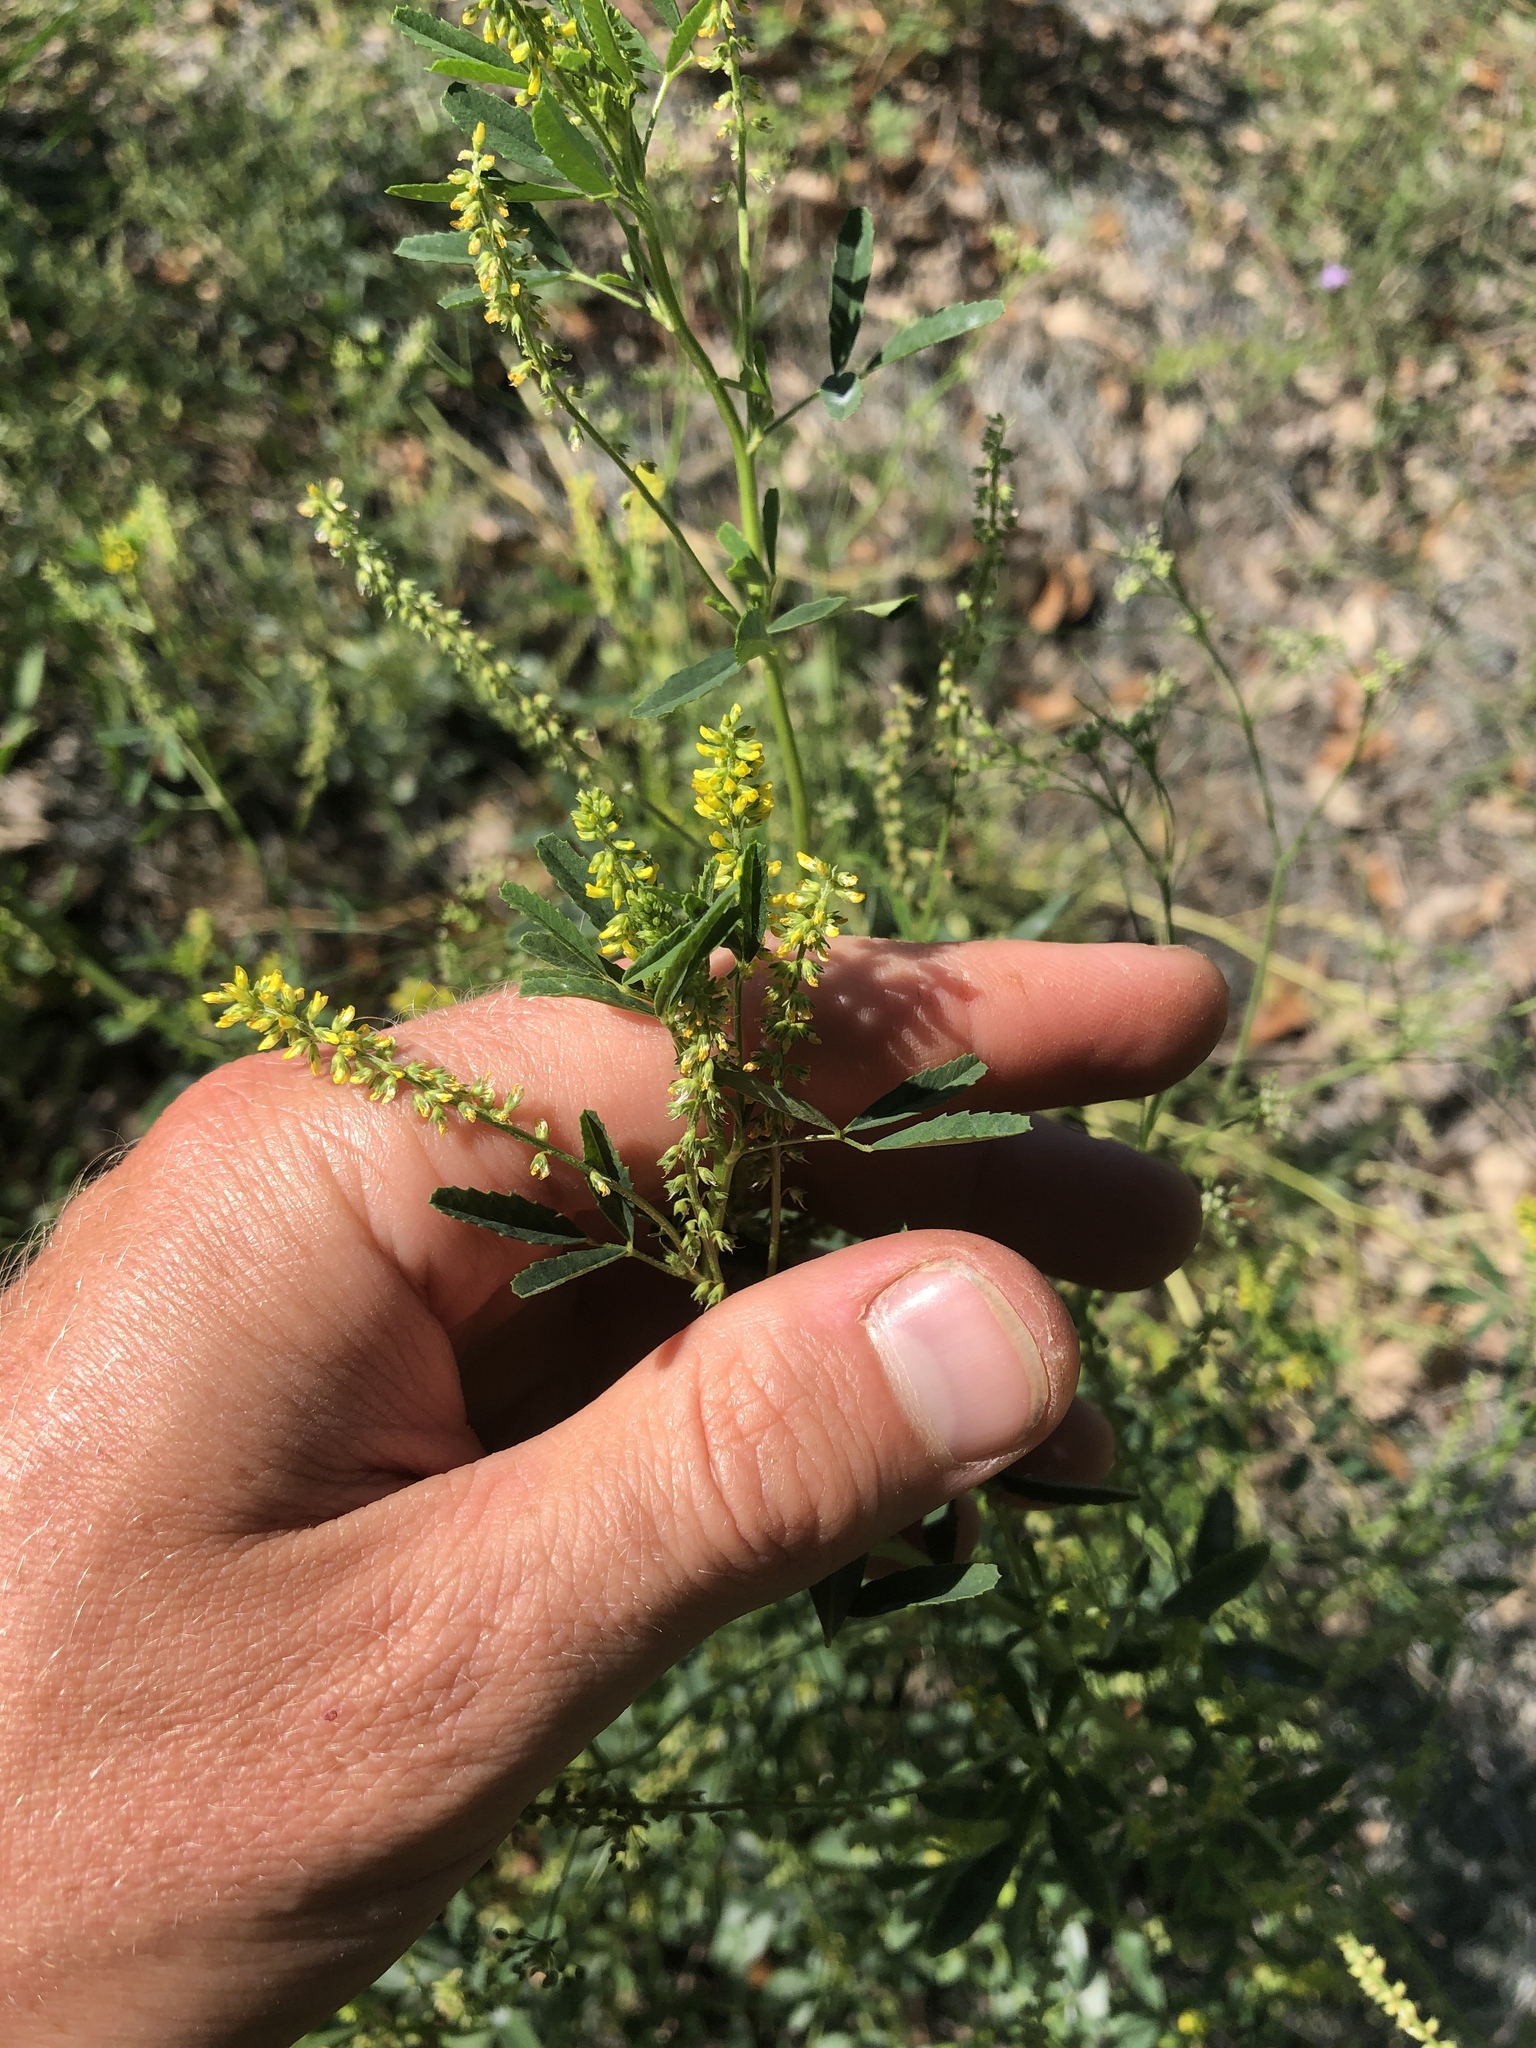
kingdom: Plantae
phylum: Tracheophyta
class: Magnoliopsida
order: Fabales
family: Fabaceae
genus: Melilotus
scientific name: Melilotus indicus
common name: Small melilot
